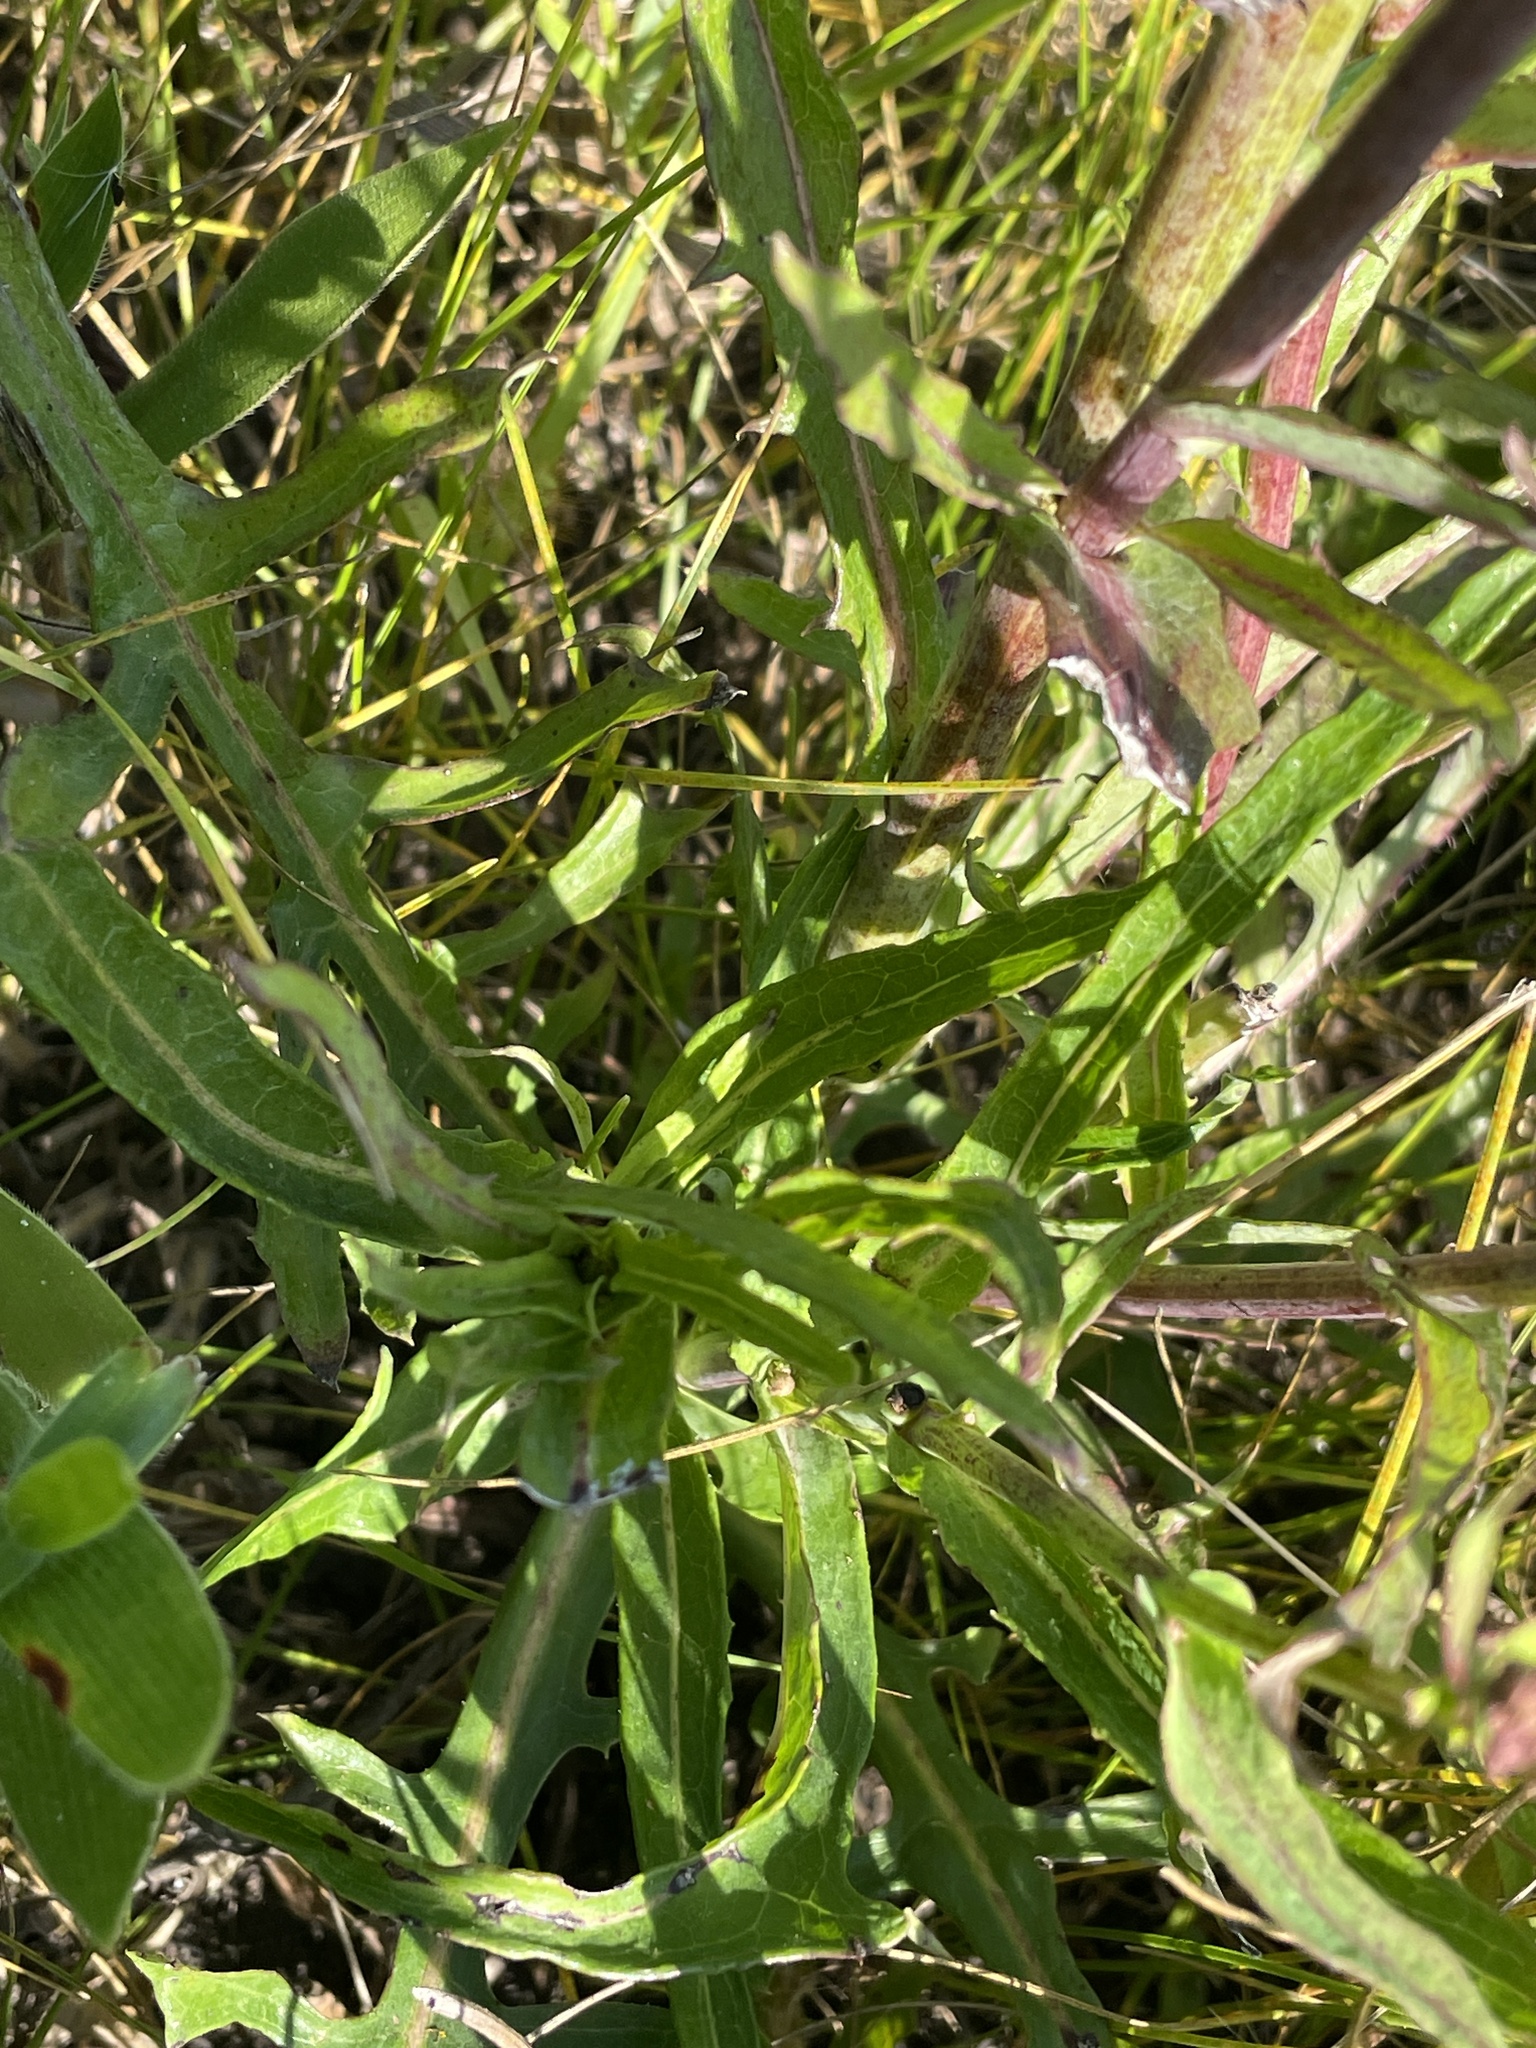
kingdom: Plantae
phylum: Tracheophyta
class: Magnoliopsida
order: Asterales
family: Asteraceae
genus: Lactuca
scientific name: Lactuca canadensis
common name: Canada lettuce
